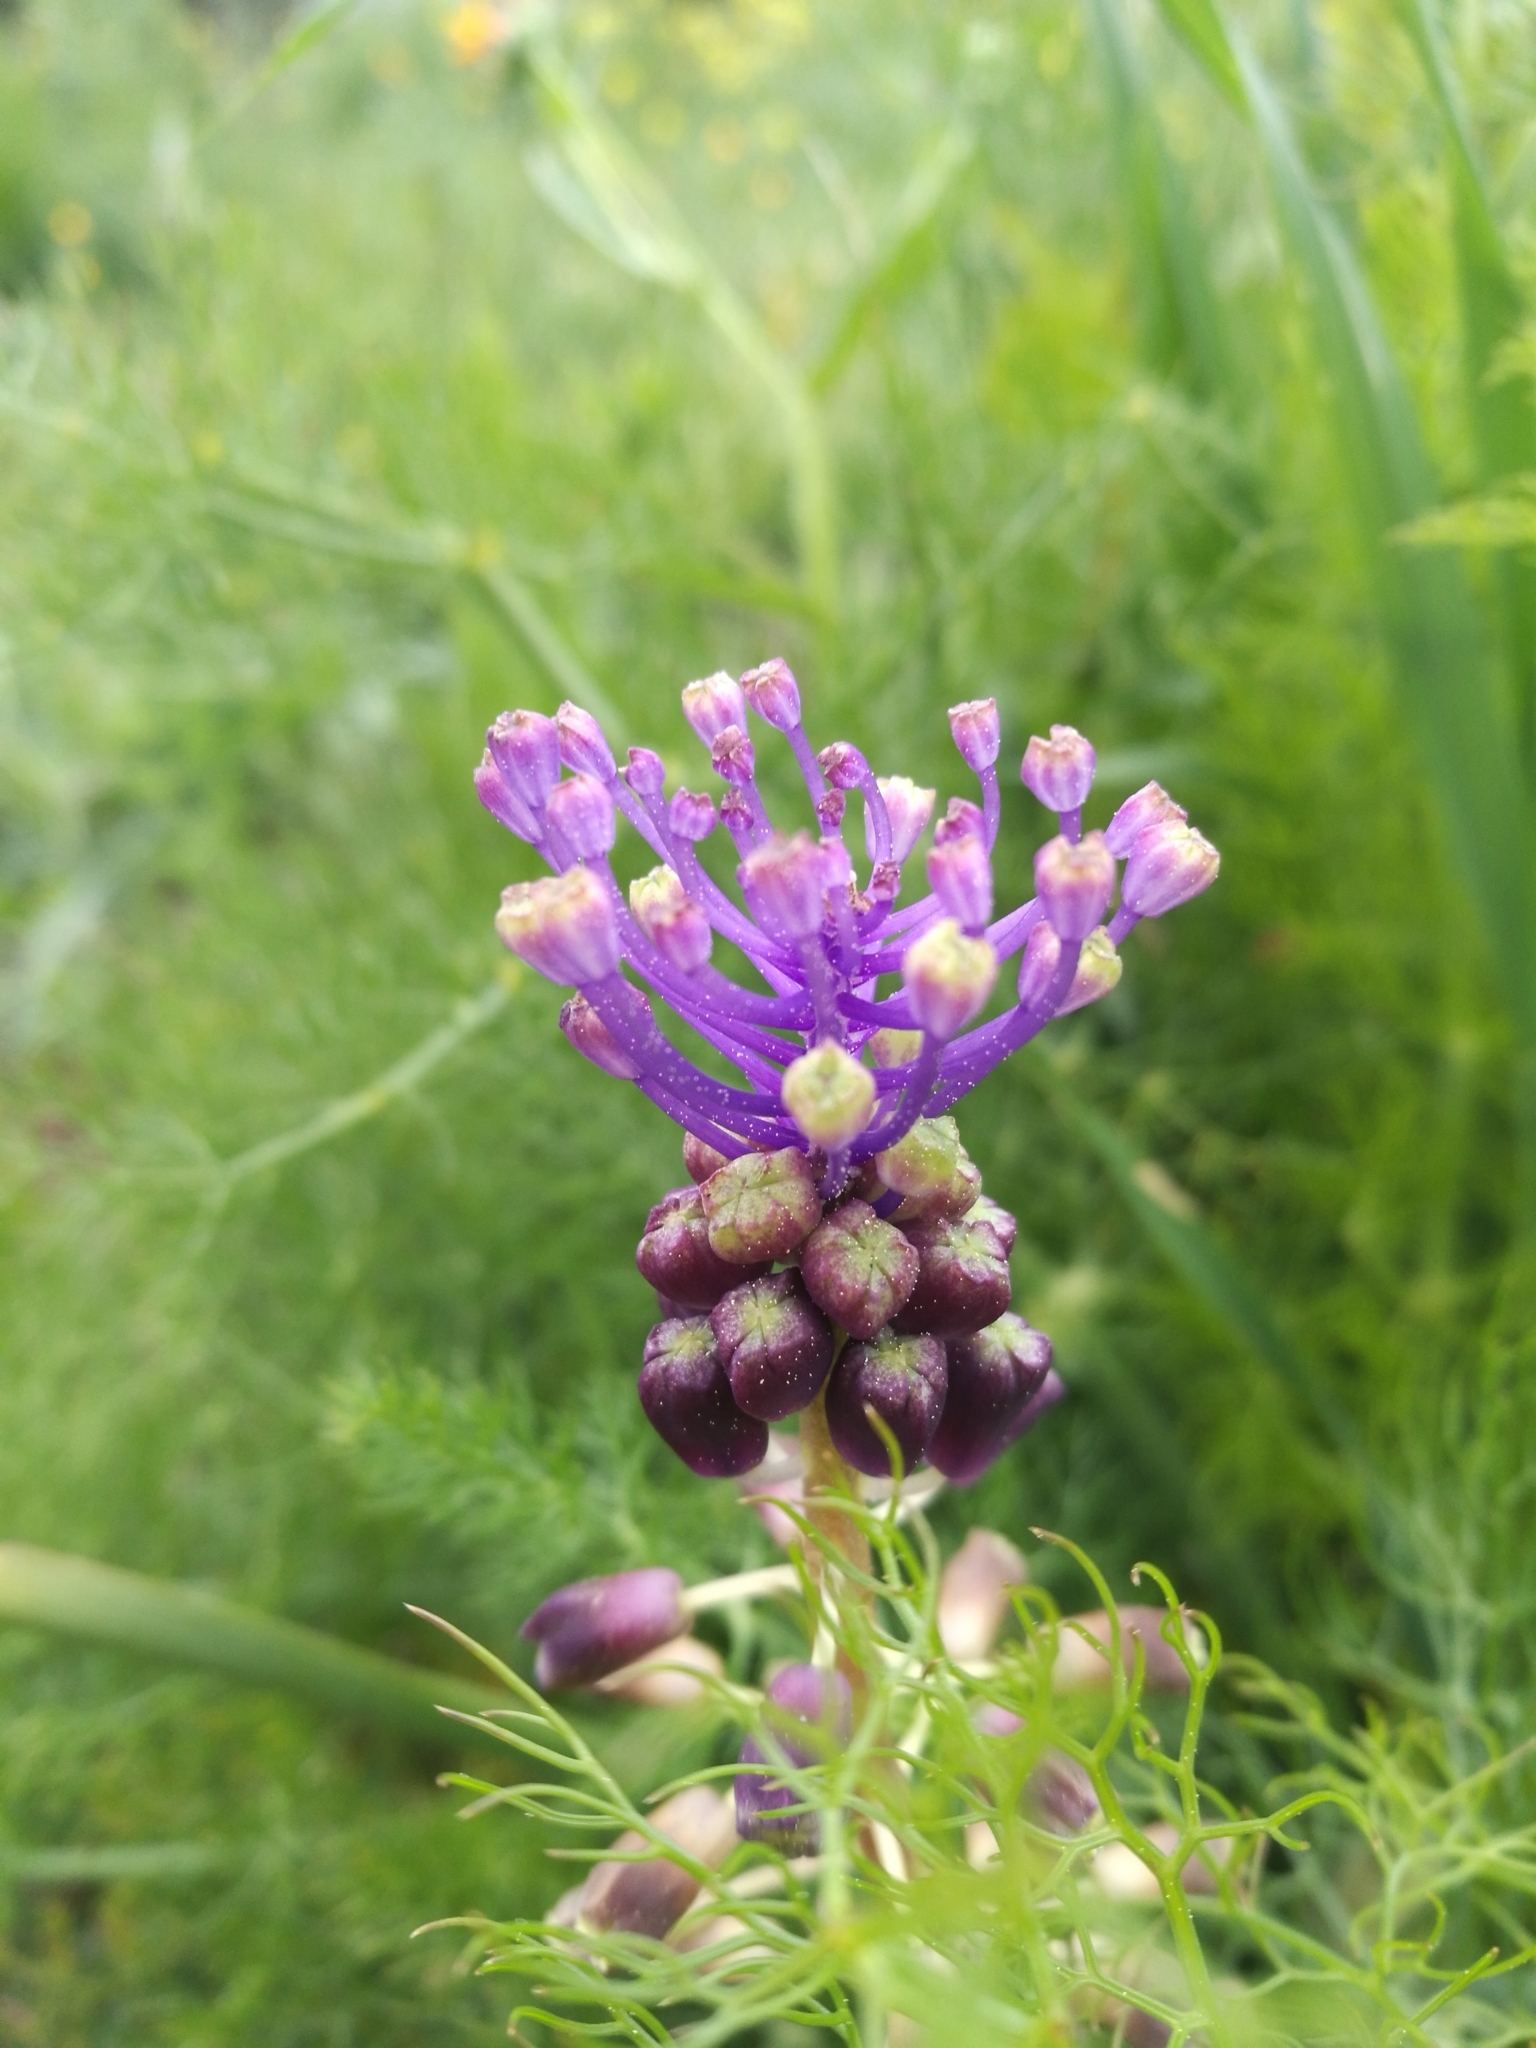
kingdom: Plantae
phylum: Tracheophyta
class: Liliopsida
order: Asparagales
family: Asparagaceae
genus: Muscari
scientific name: Muscari comosum
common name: Tassel hyacinth
